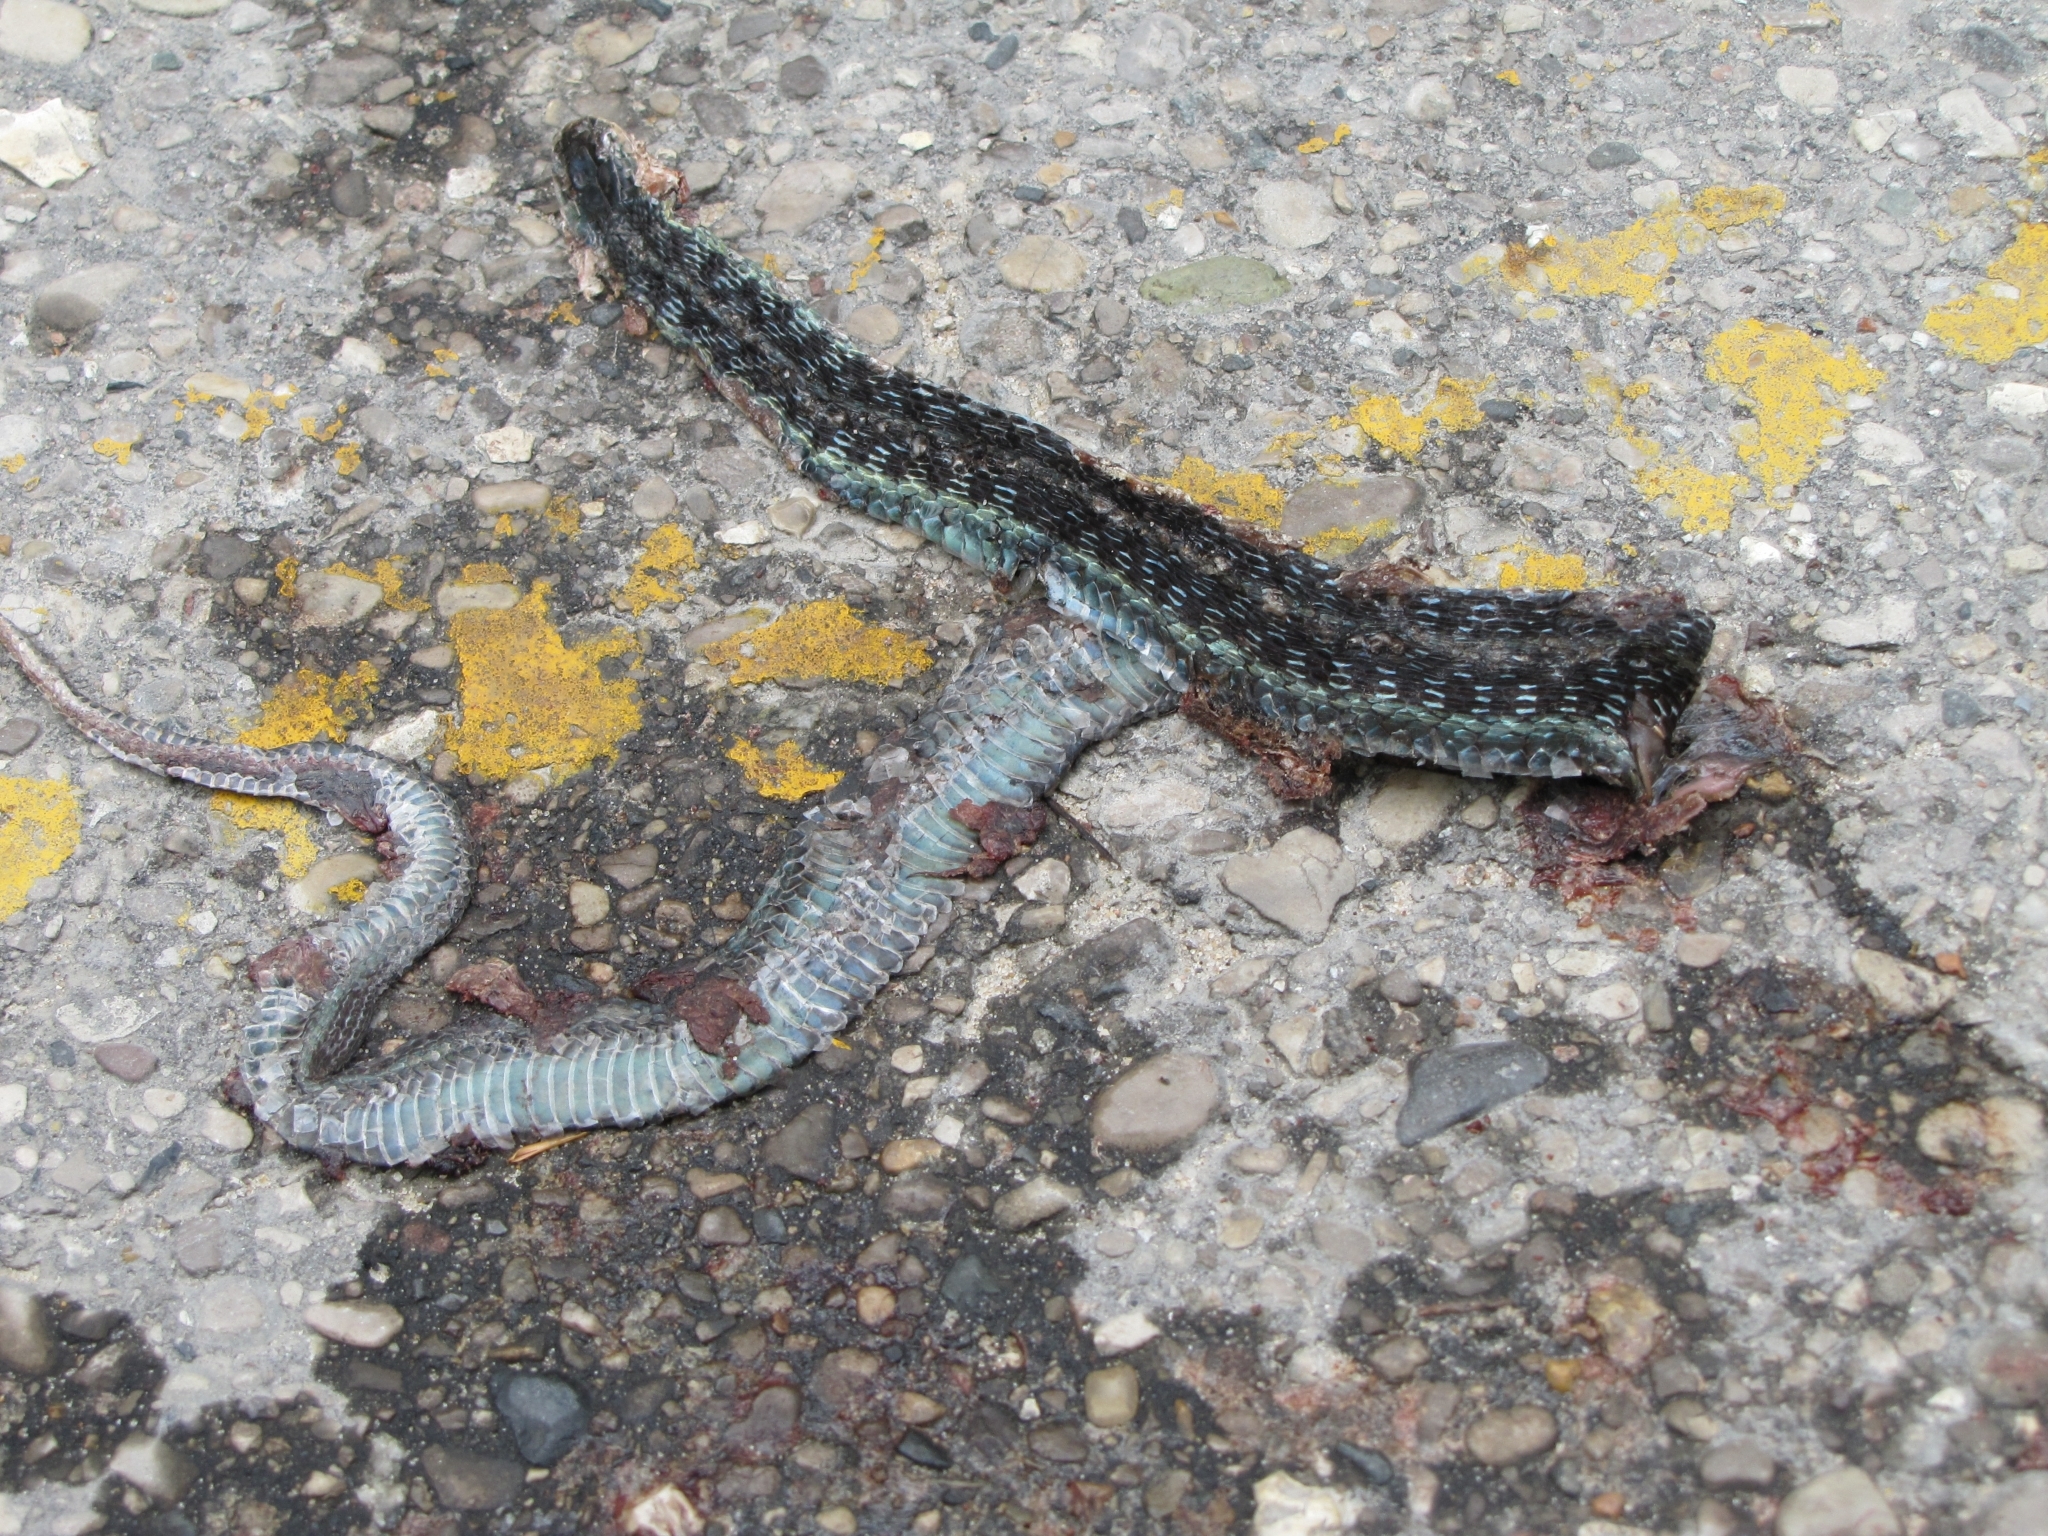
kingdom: Animalia
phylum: Chordata
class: Squamata
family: Colubridae
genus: Thamnophis
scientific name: Thamnophis sirtalis
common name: Common garter snake
